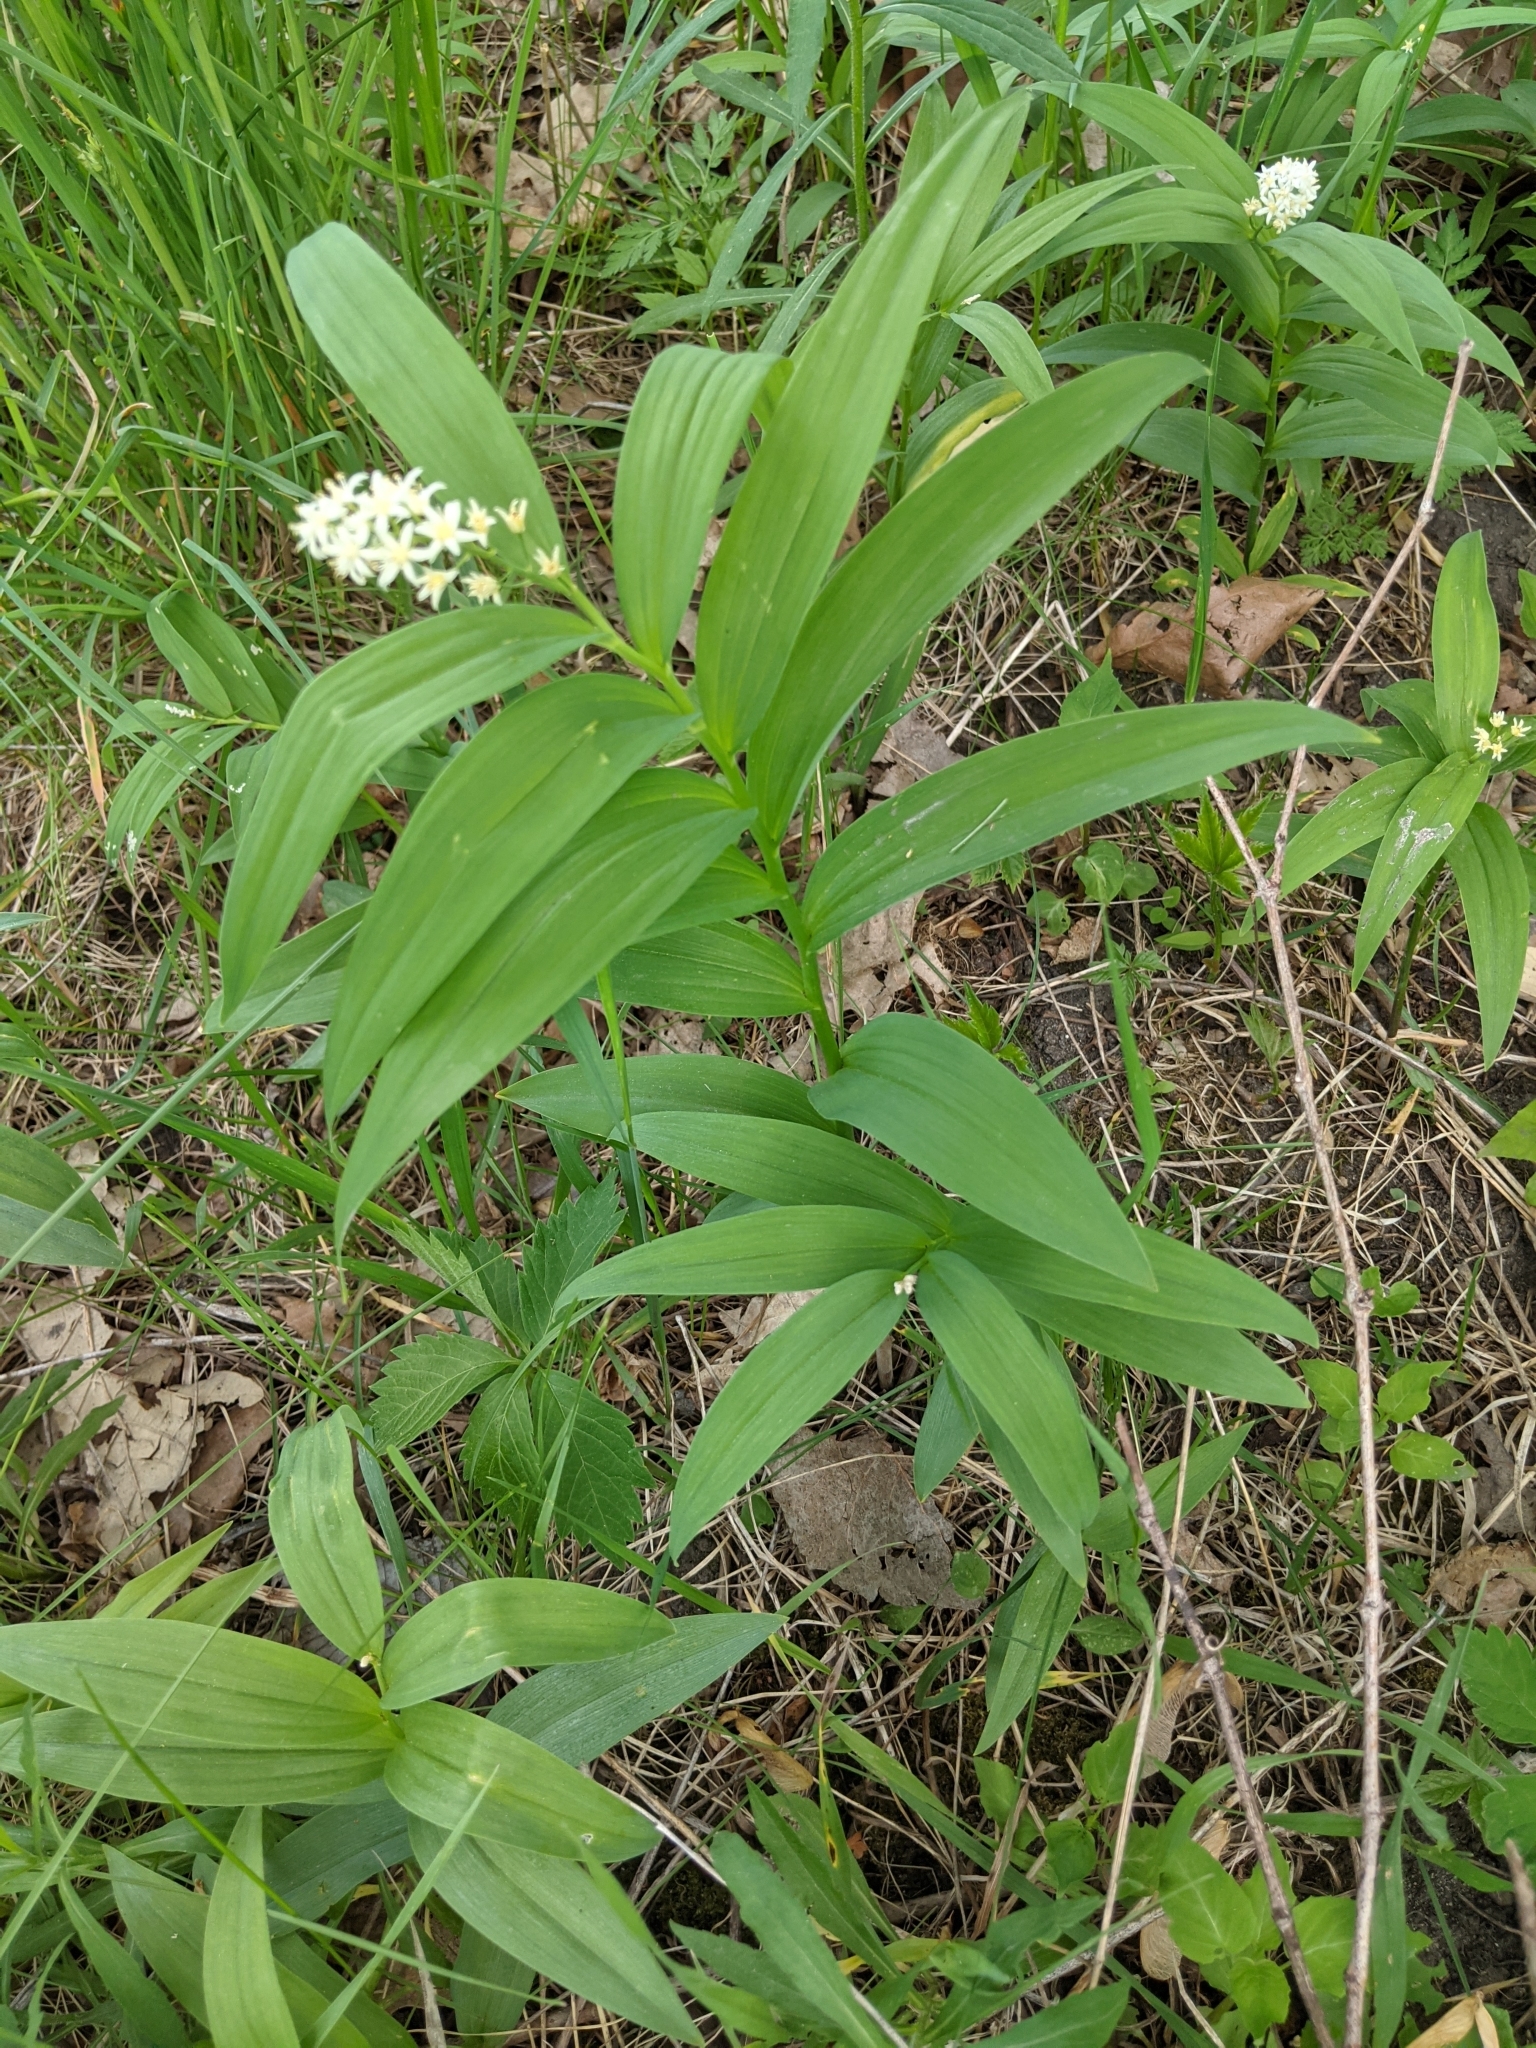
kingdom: Plantae
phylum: Tracheophyta
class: Liliopsida
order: Asparagales
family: Asparagaceae
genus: Maianthemum
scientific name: Maianthemum stellatum
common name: Little false solomon's seal
